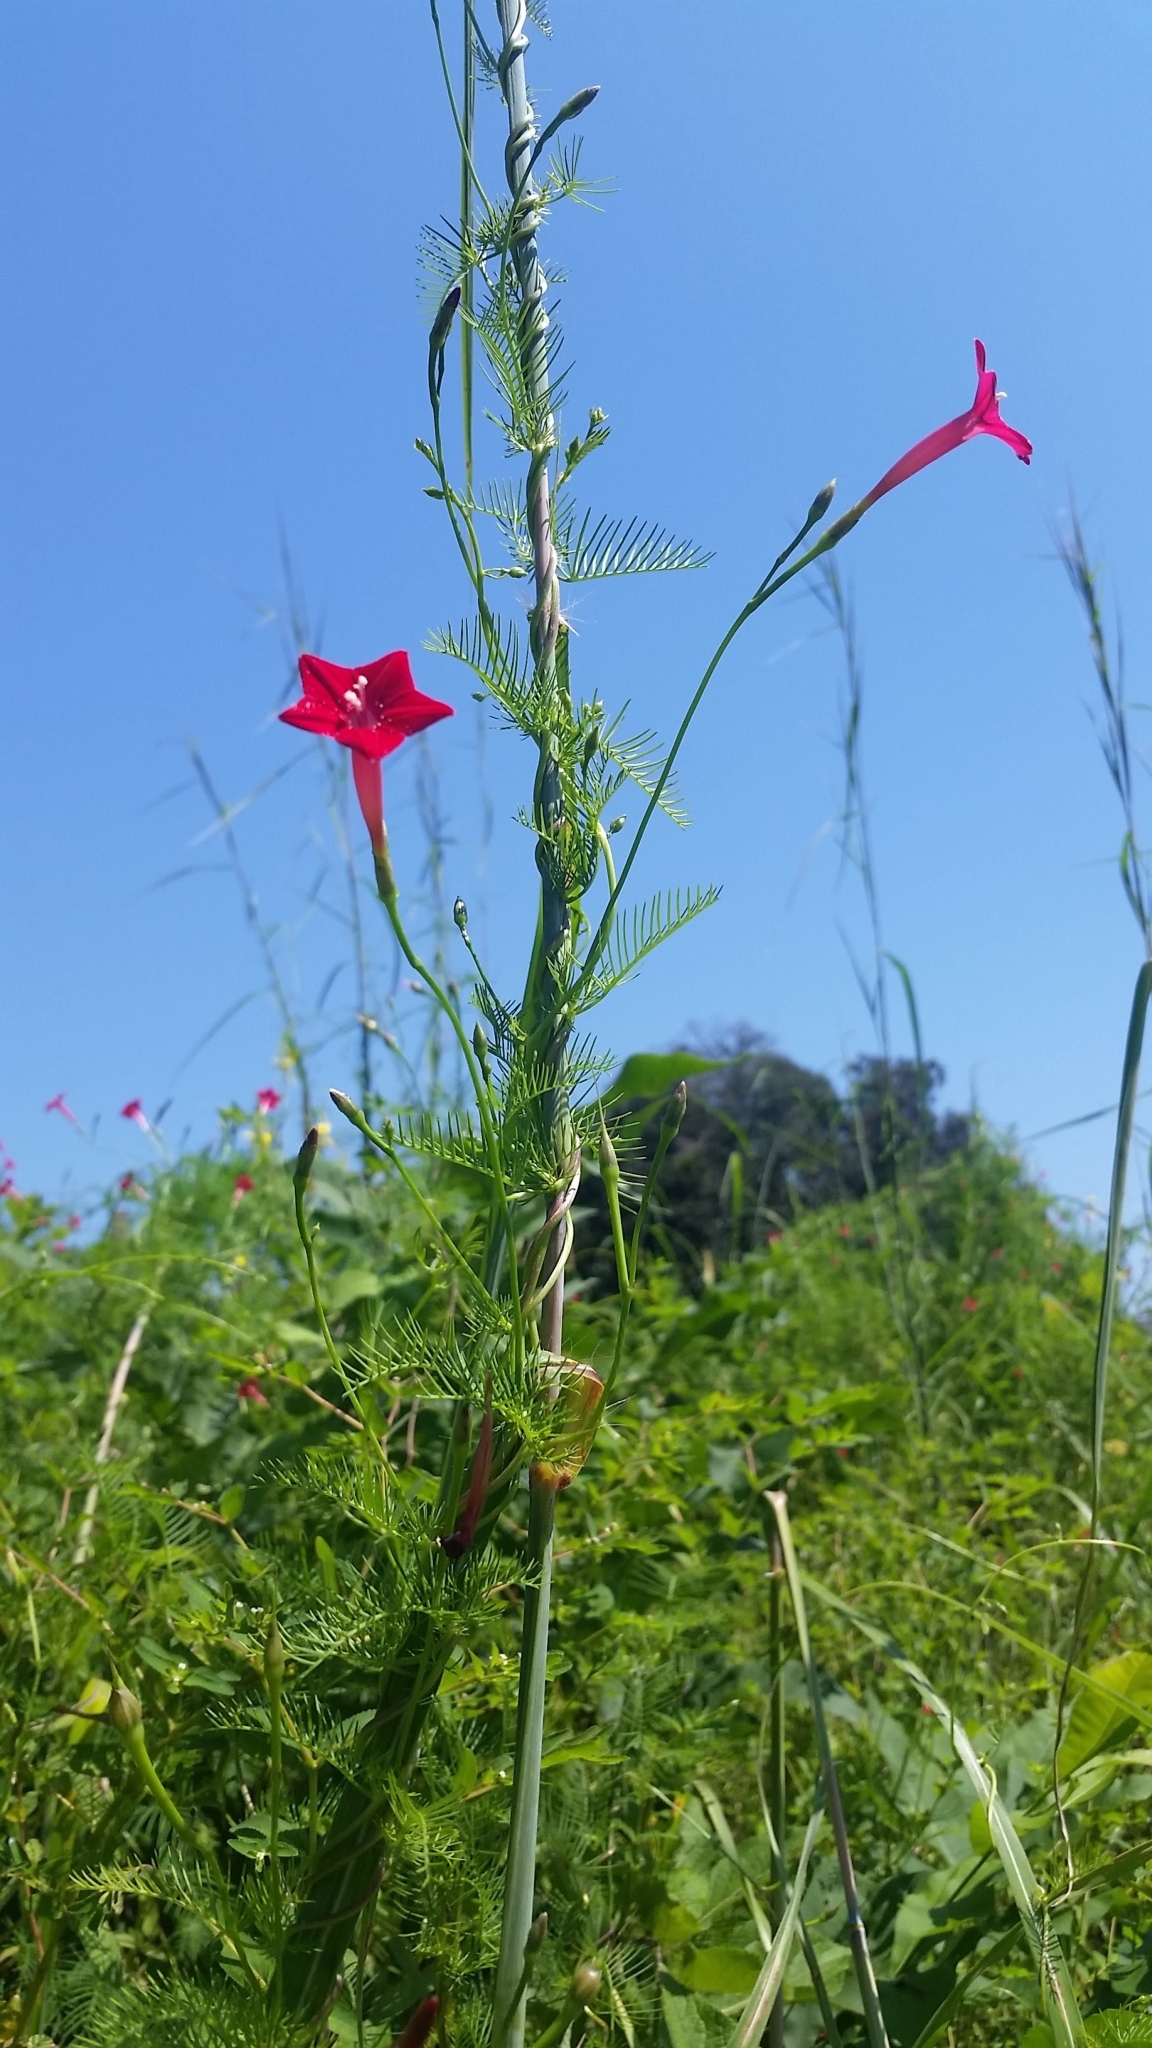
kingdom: Plantae
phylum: Tracheophyta
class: Magnoliopsida
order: Solanales
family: Convolvulaceae
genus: Ipomoea
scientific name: Ipomoea quamoclit
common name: Cypress vine
